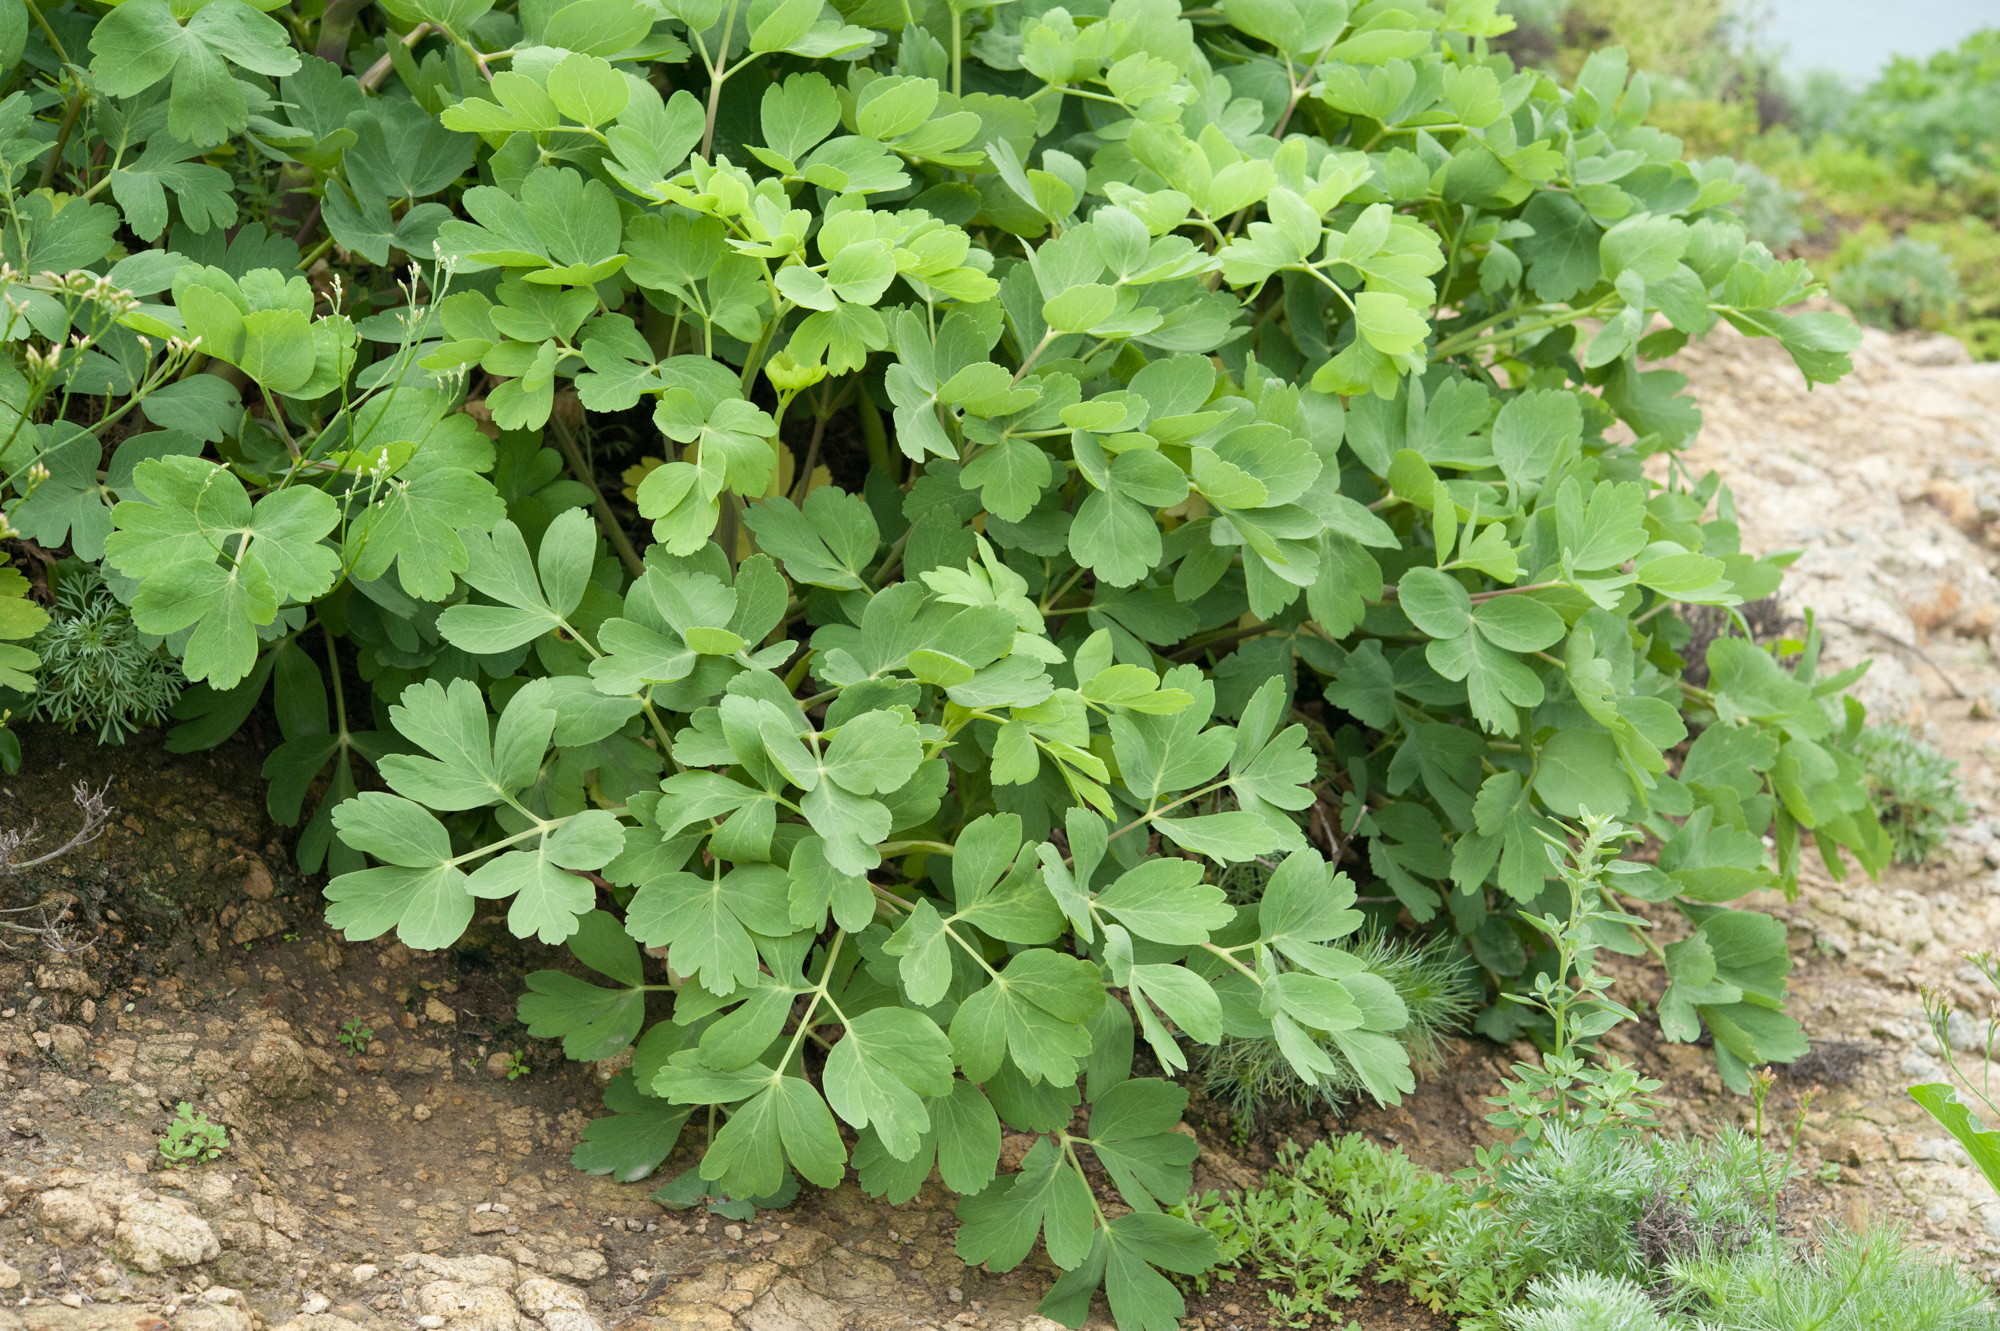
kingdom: Plantae
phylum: Tracheophyta
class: Magnoliopsida
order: Apiales
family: Apiaceae
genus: Peucedanum
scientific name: Peucedanum japonicum
